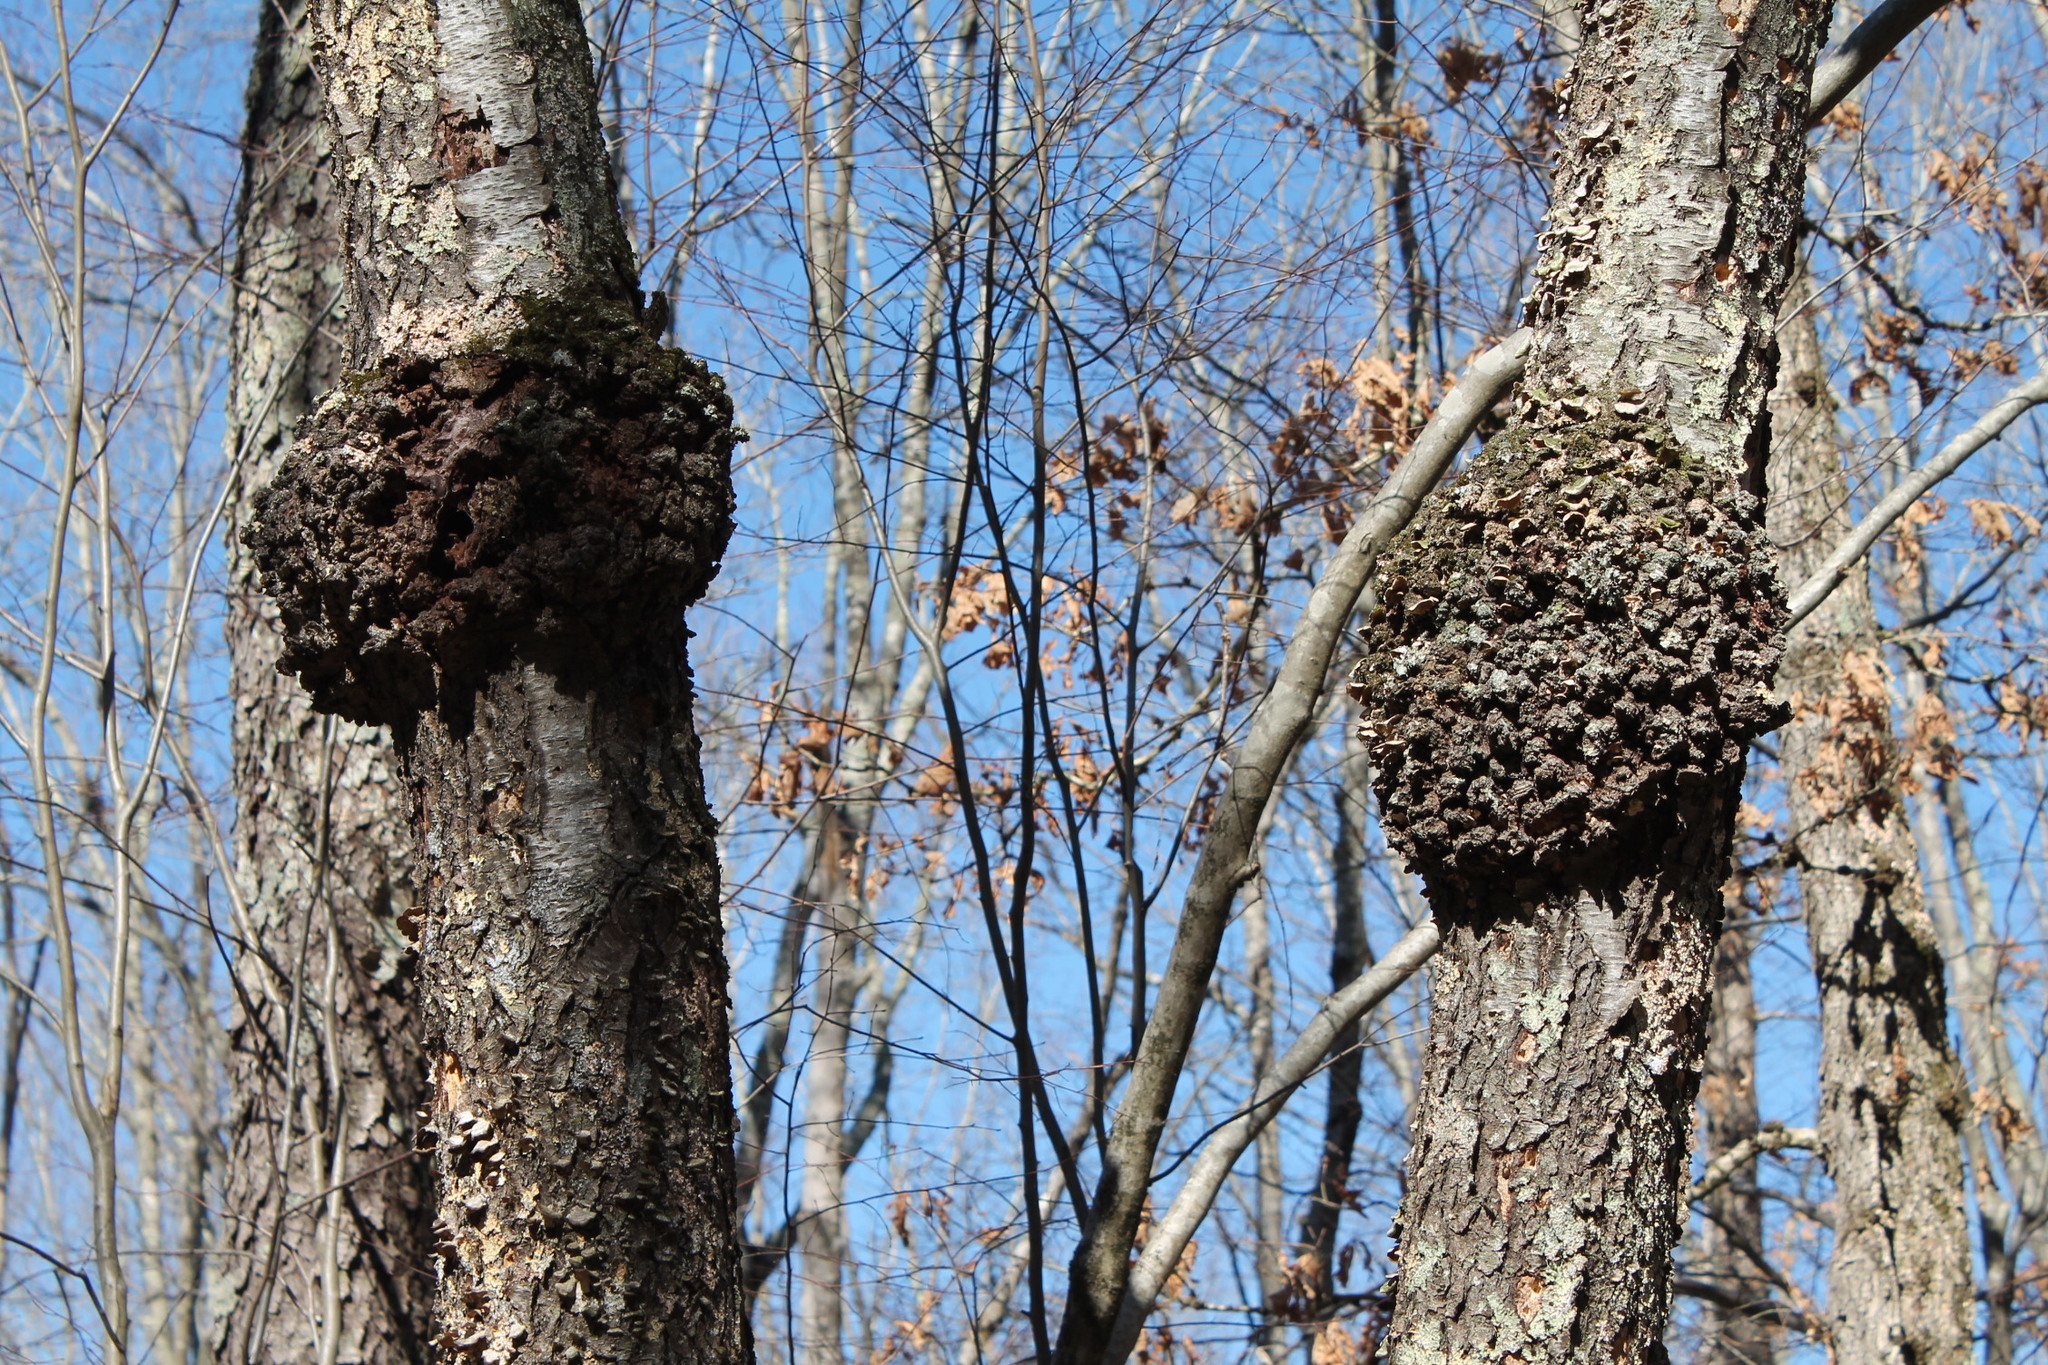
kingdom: Bacteria
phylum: Proteobacteria
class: Alphaproteobacteria
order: Rhizobiales
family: Rhizobiaceae
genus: Rhizobium
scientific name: Rhizobium Agrobacterium radiobacter
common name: Bacterial crown gall
